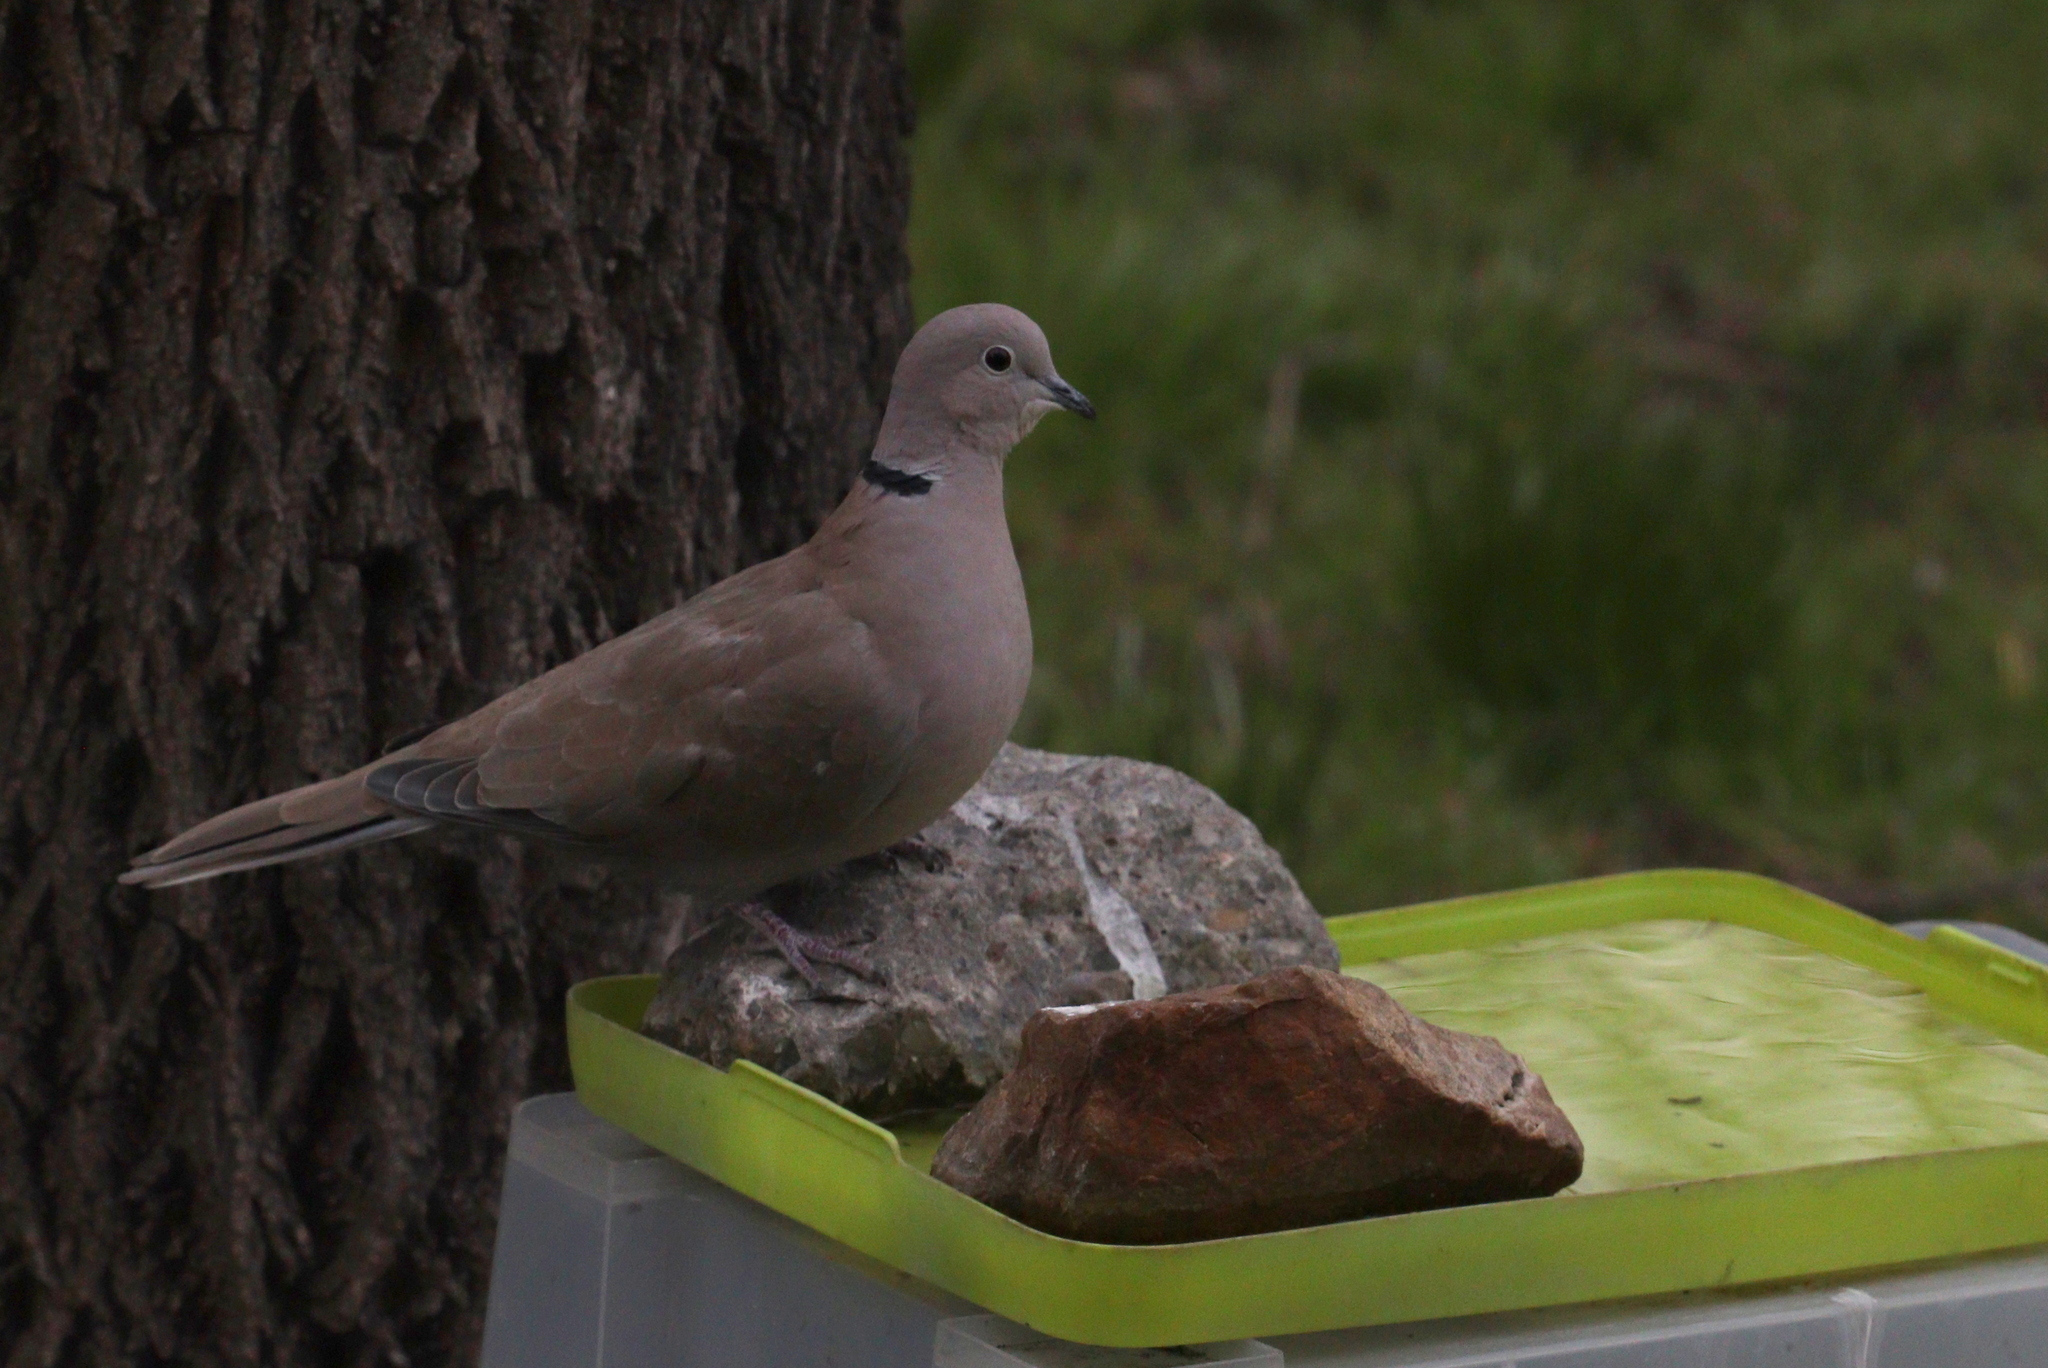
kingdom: Animalia
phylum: Chordata
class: Aves
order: Columbiformes
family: Columbidae
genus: Streptopelia
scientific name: Streptopelia decaocto
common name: Eurasian collared dove
